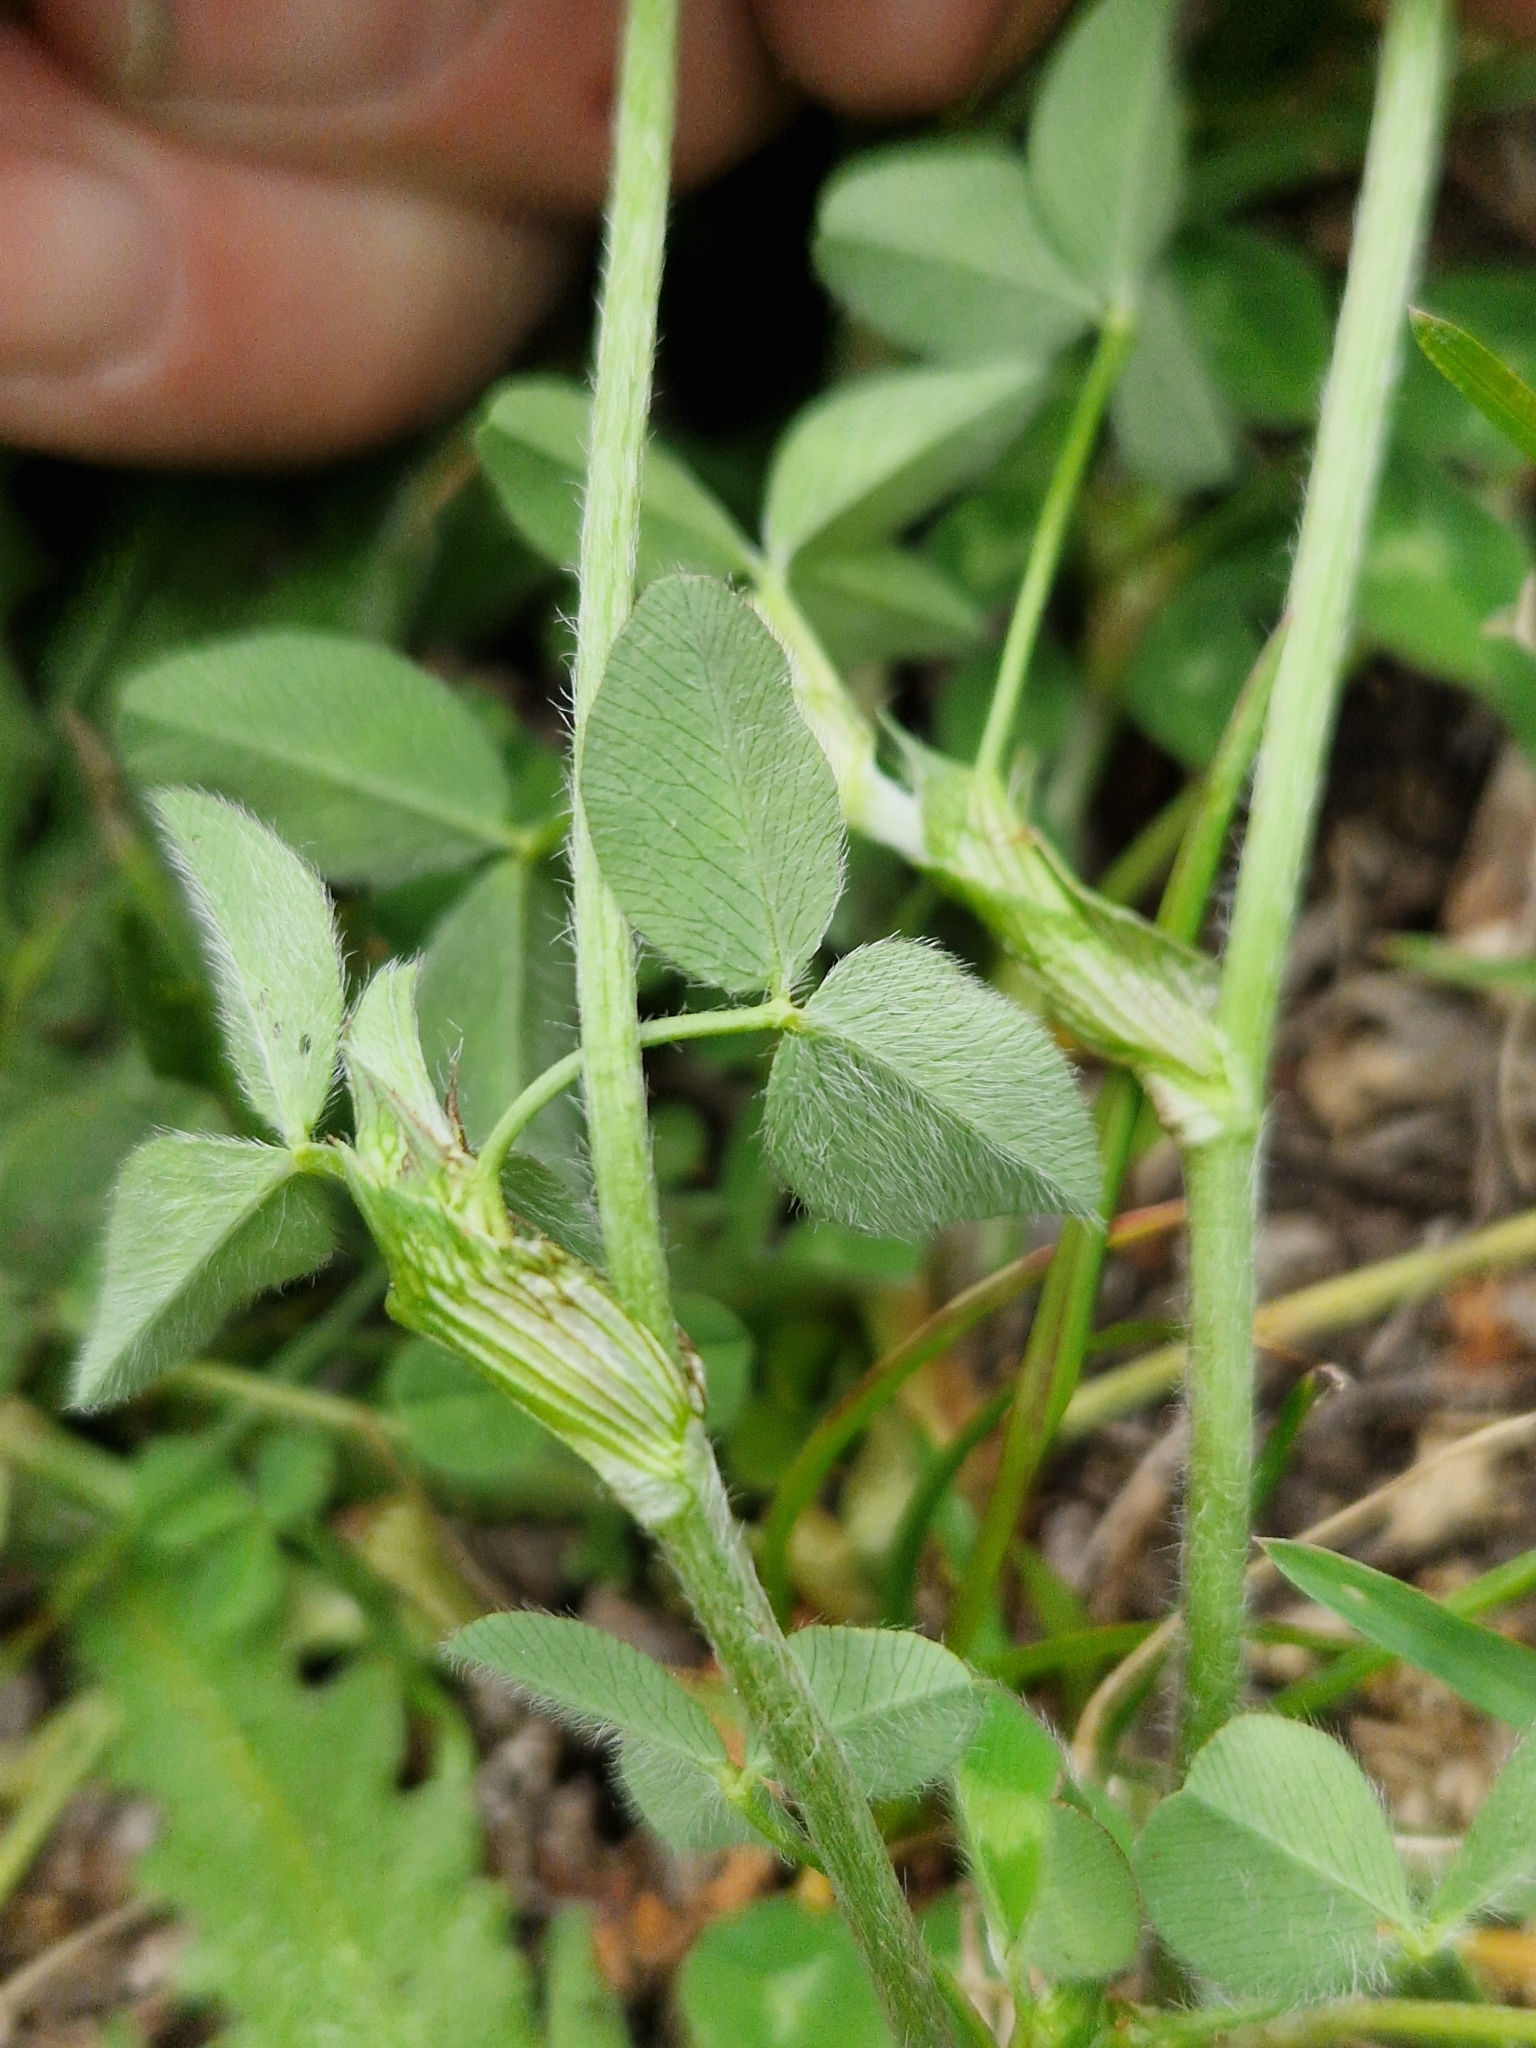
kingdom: Plantae
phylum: Tracheophyta
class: Magnoliopsida
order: Fabales
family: Fabaceae
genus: Trifolium
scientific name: Trifolium pratense
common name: Red clover
